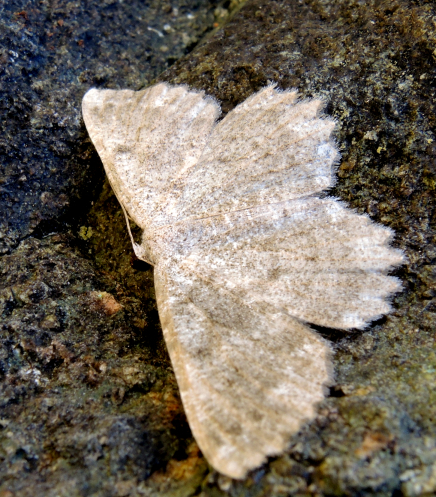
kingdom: Animalia
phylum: Arthropoda
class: Insecta
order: Lepidoptera
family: Geometridae
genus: Gnophos
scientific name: Gnophos sartata
